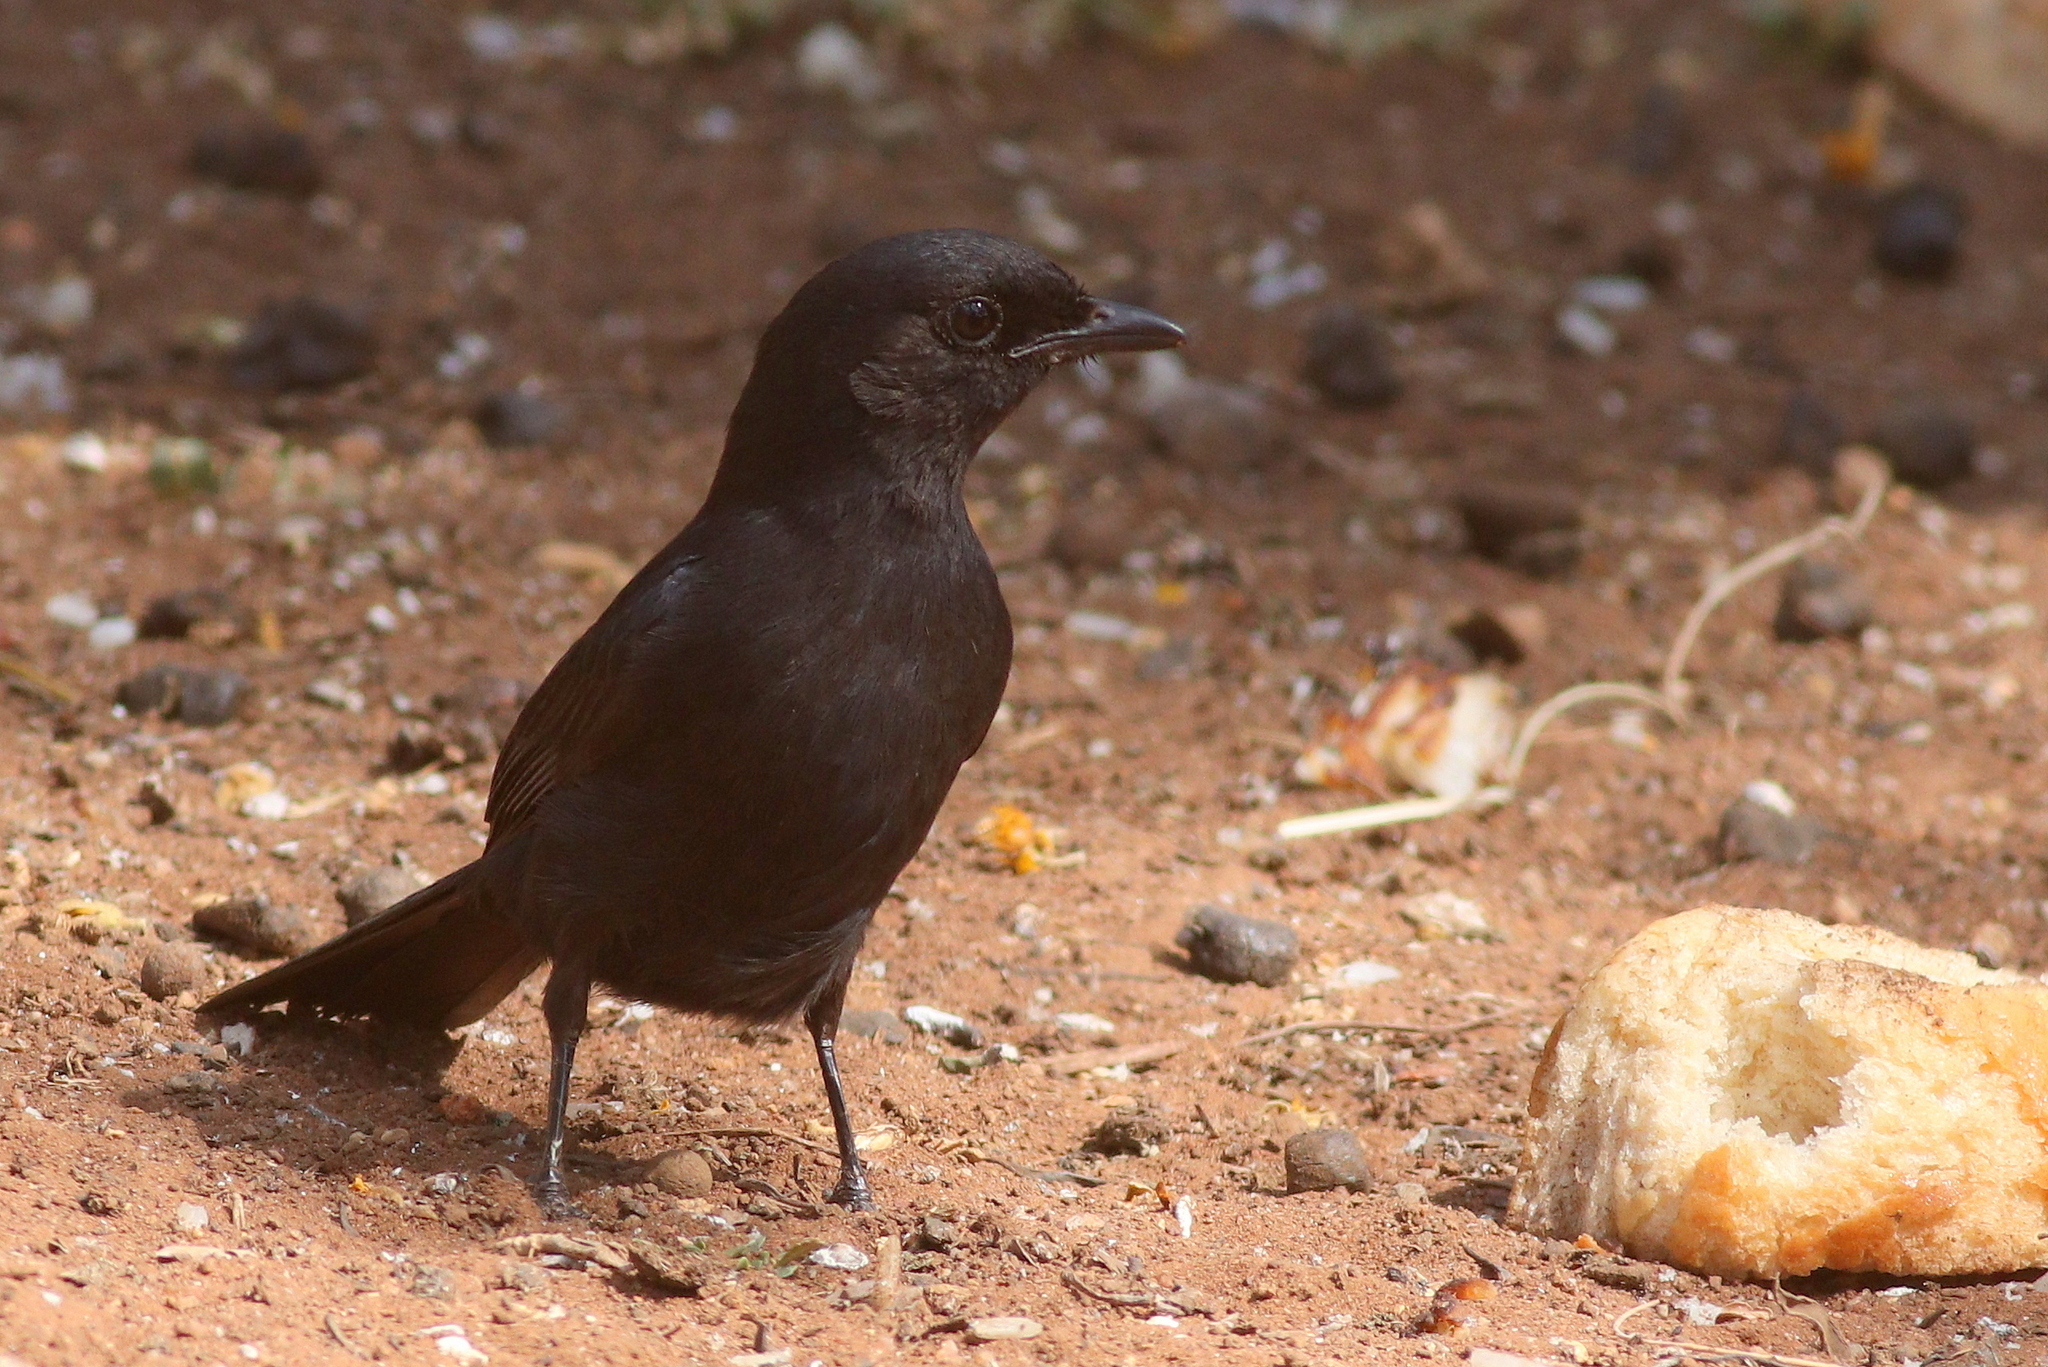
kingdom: Animalia
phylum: Chordata
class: Aves
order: Passeriformes
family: Muscicapidae
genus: Melaenornis
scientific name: Melaenornis pammelaina
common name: Southern black flycatcher
